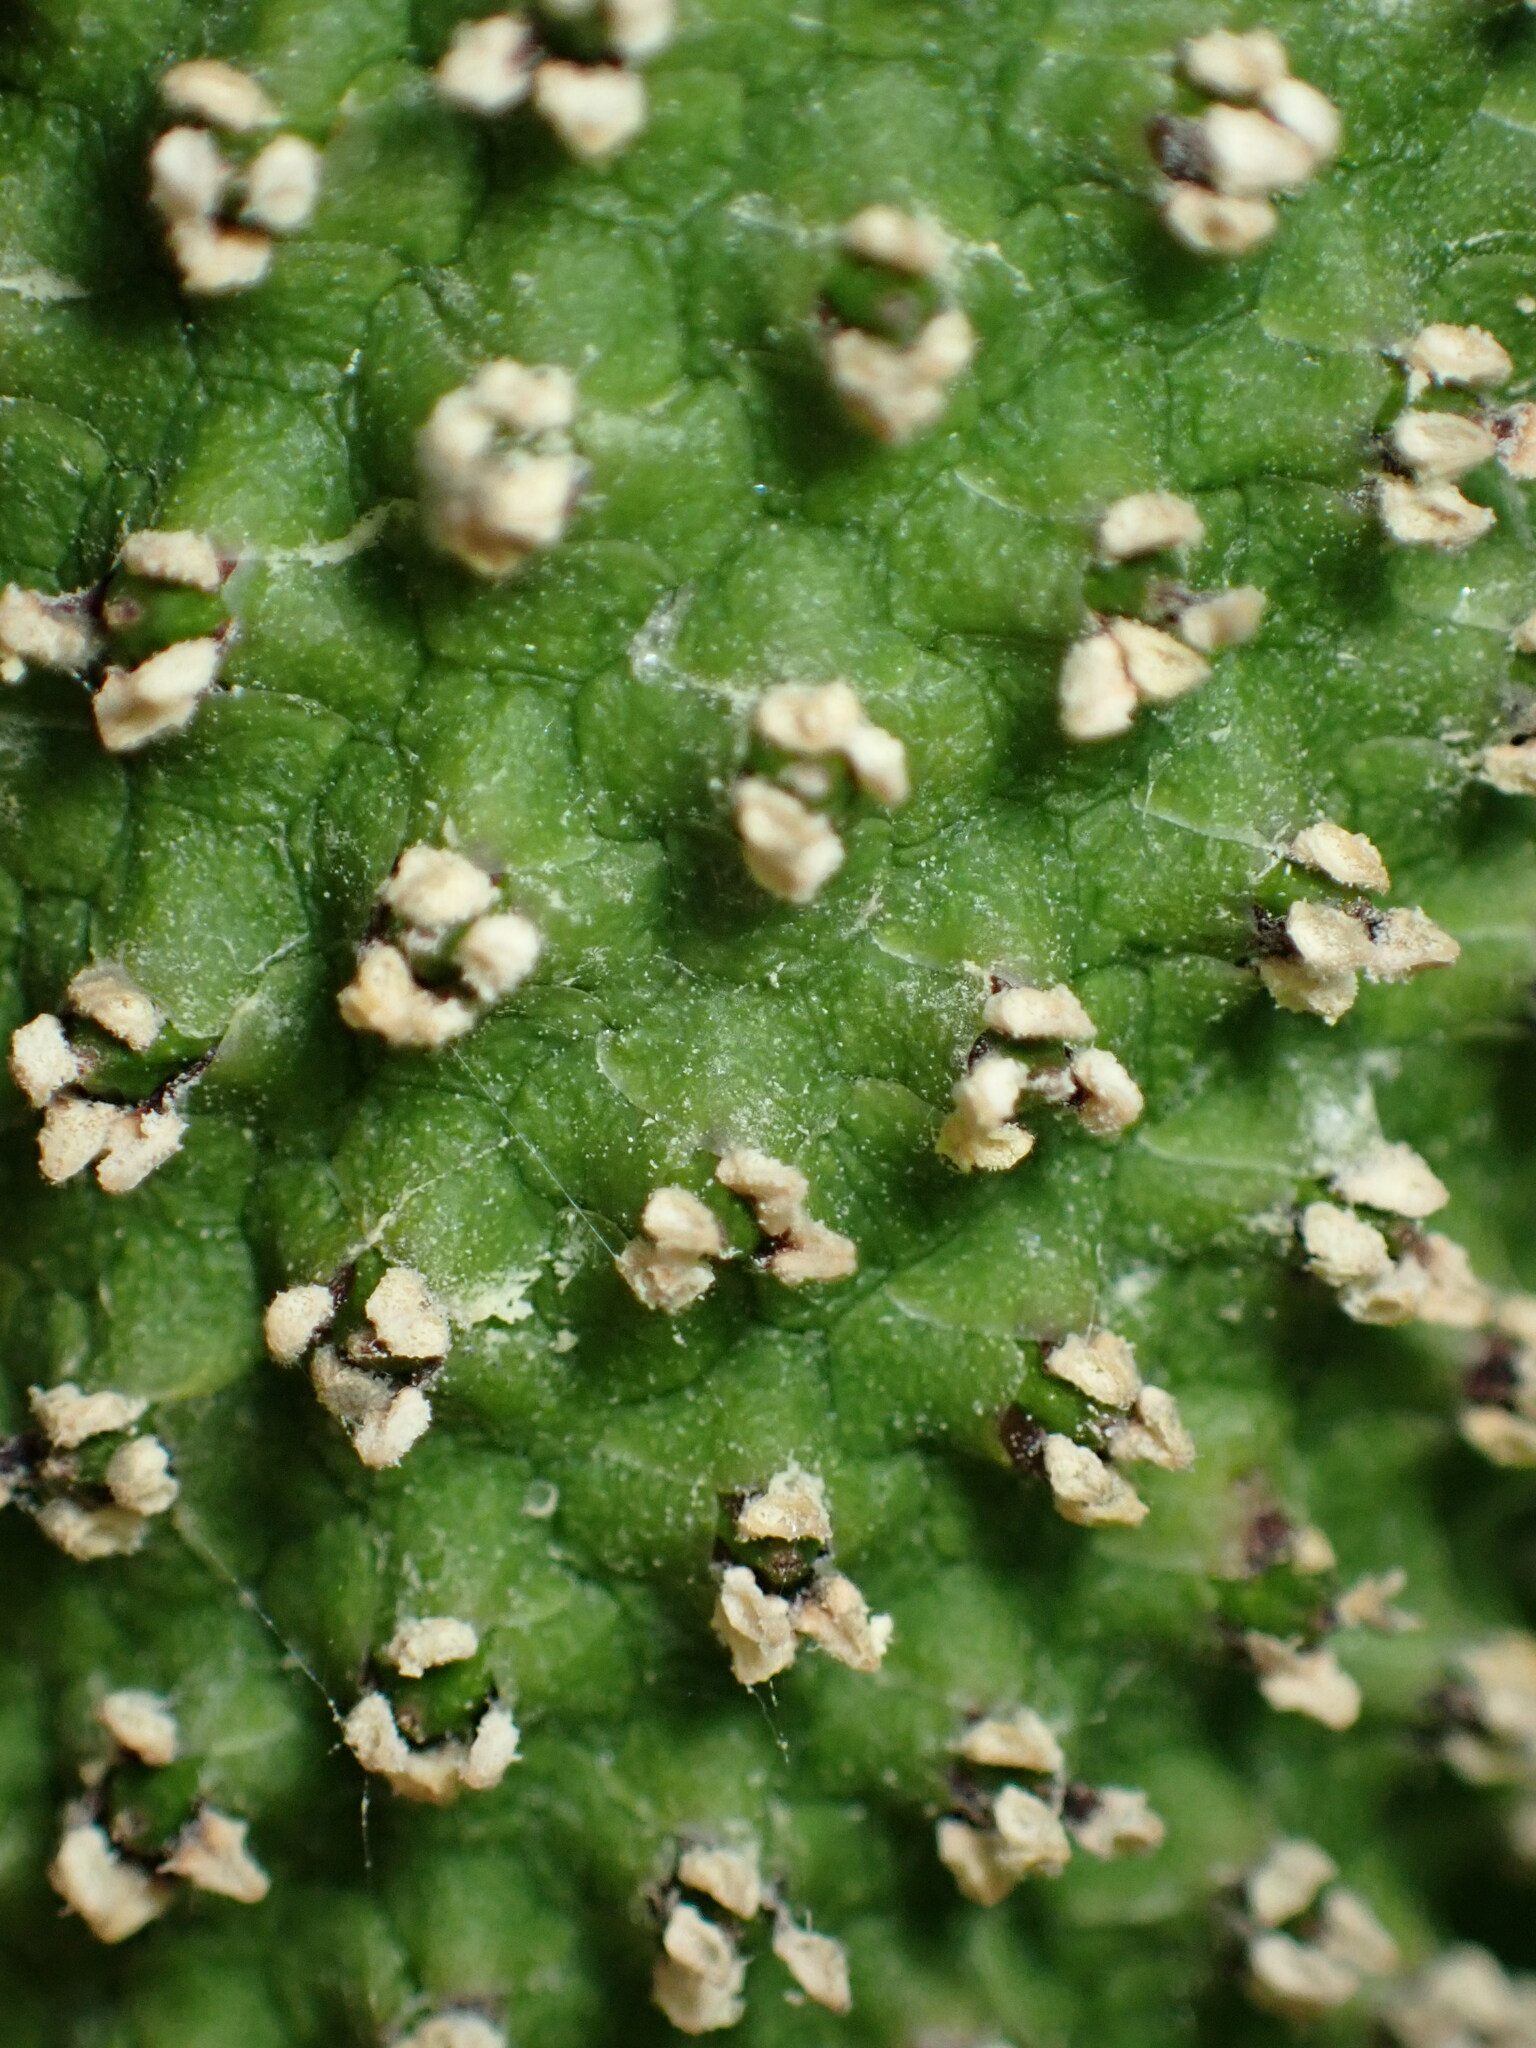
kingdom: Plantae
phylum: Tracheophyta
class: Liliopsida
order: Alismatales
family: Araceae
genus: Lysichiton
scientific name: Lysichiton americanus
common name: American skunk cabbage
